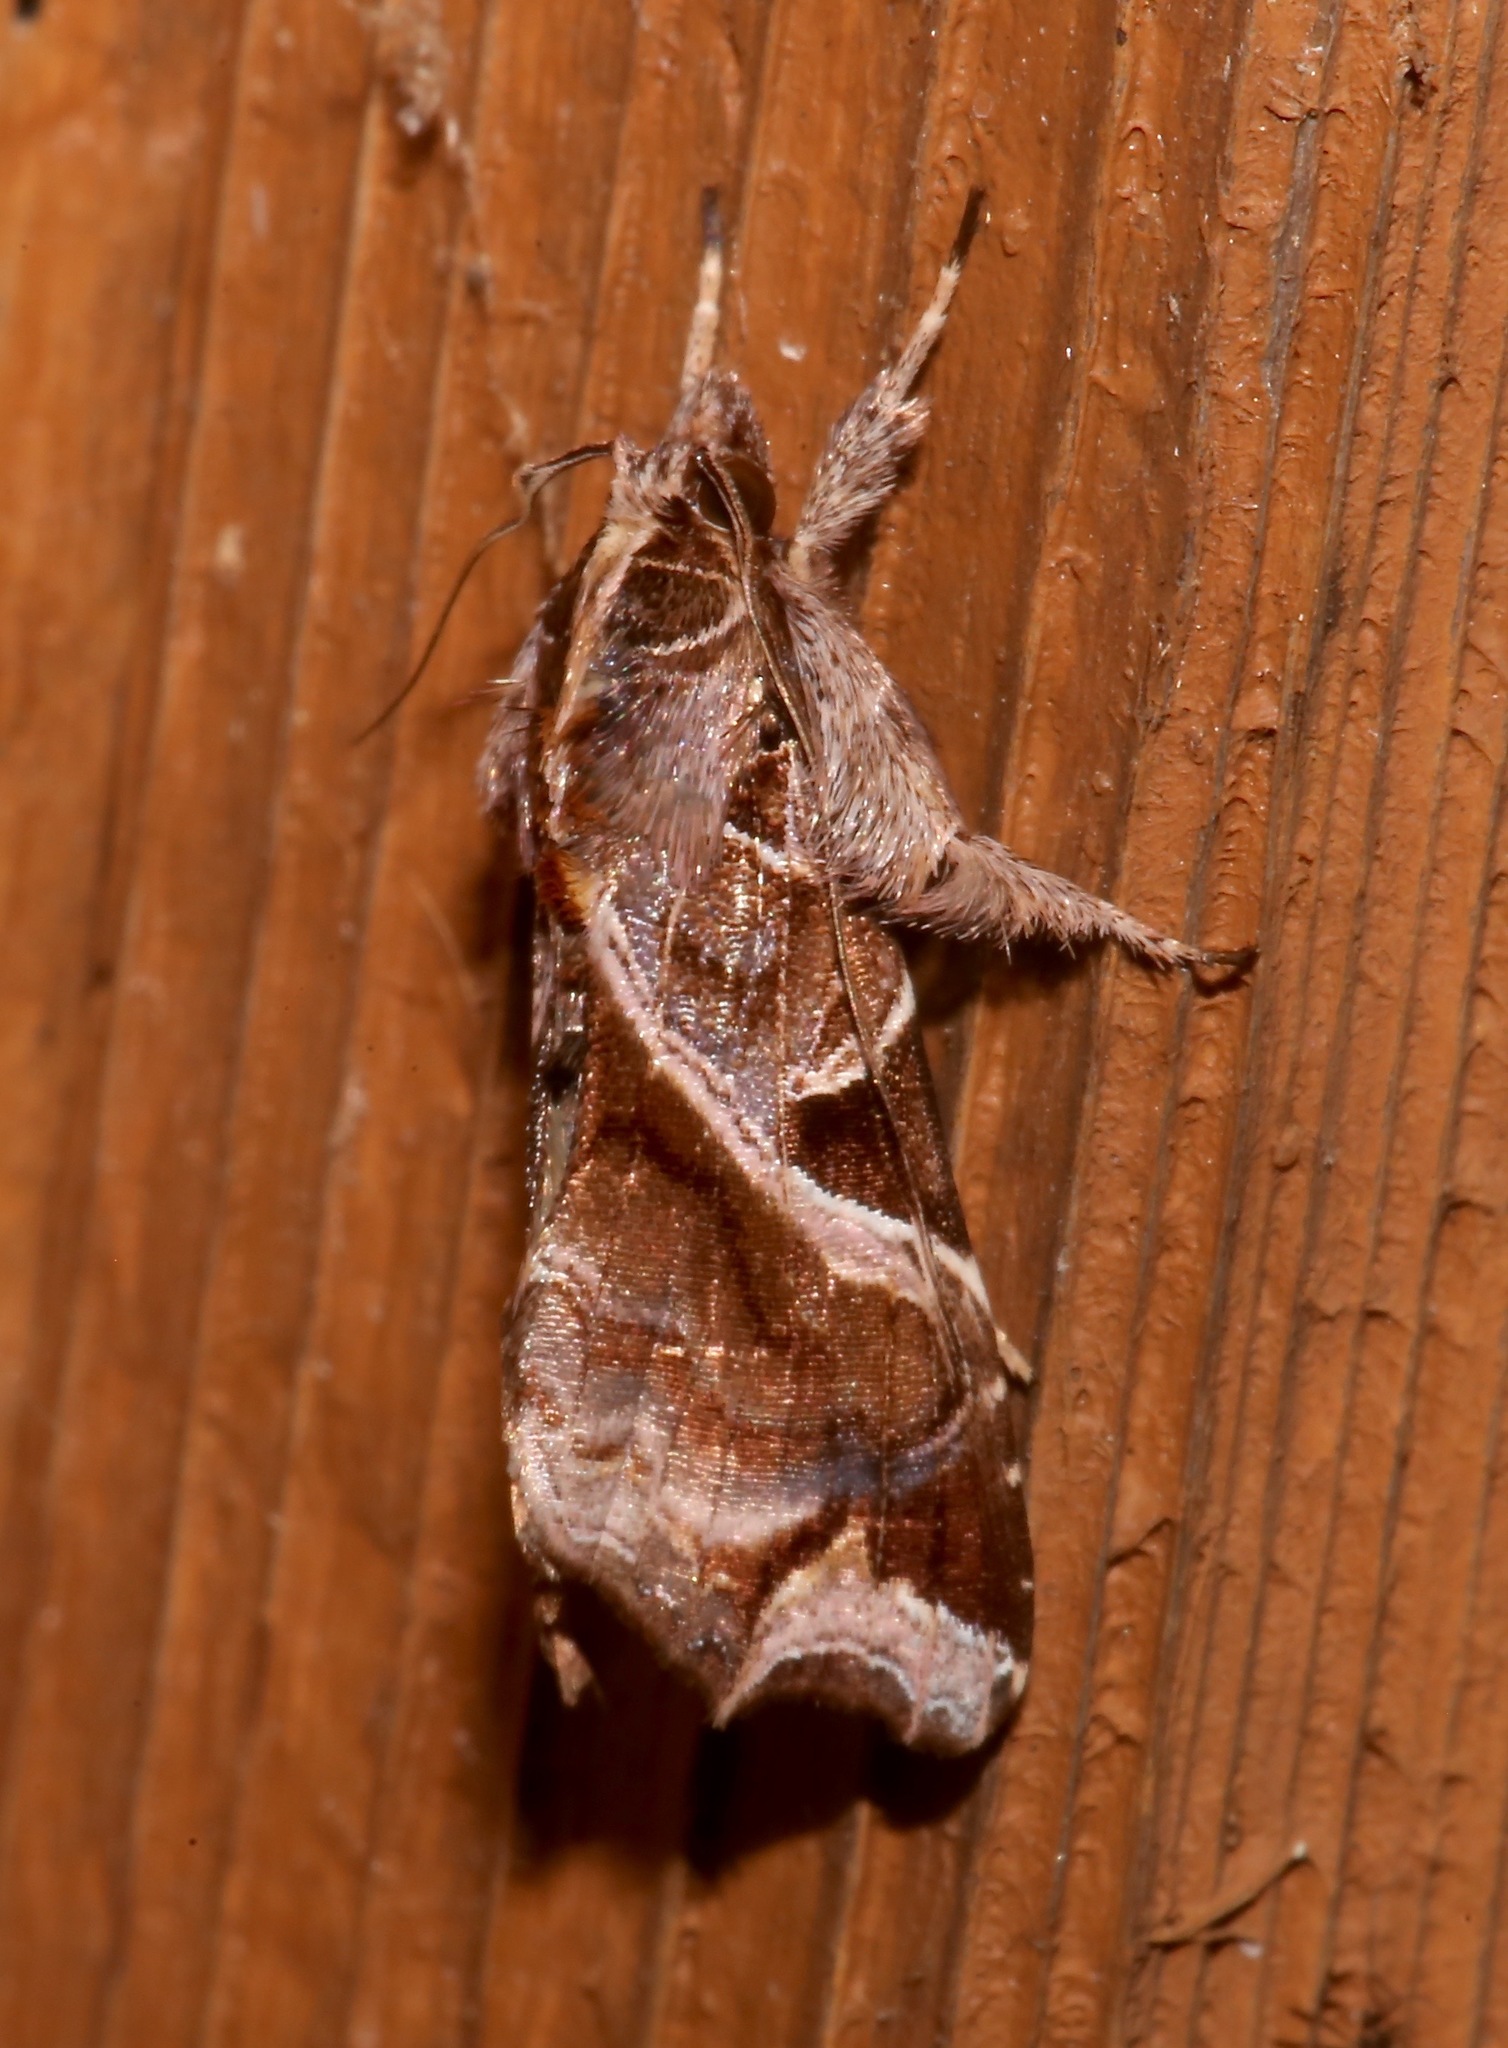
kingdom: Animalia
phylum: Arthropoda
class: Insecta
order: Lepidoptera
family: Noctuidae
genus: Callopistria
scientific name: Callopistria floridensis
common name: Florida fern moth
